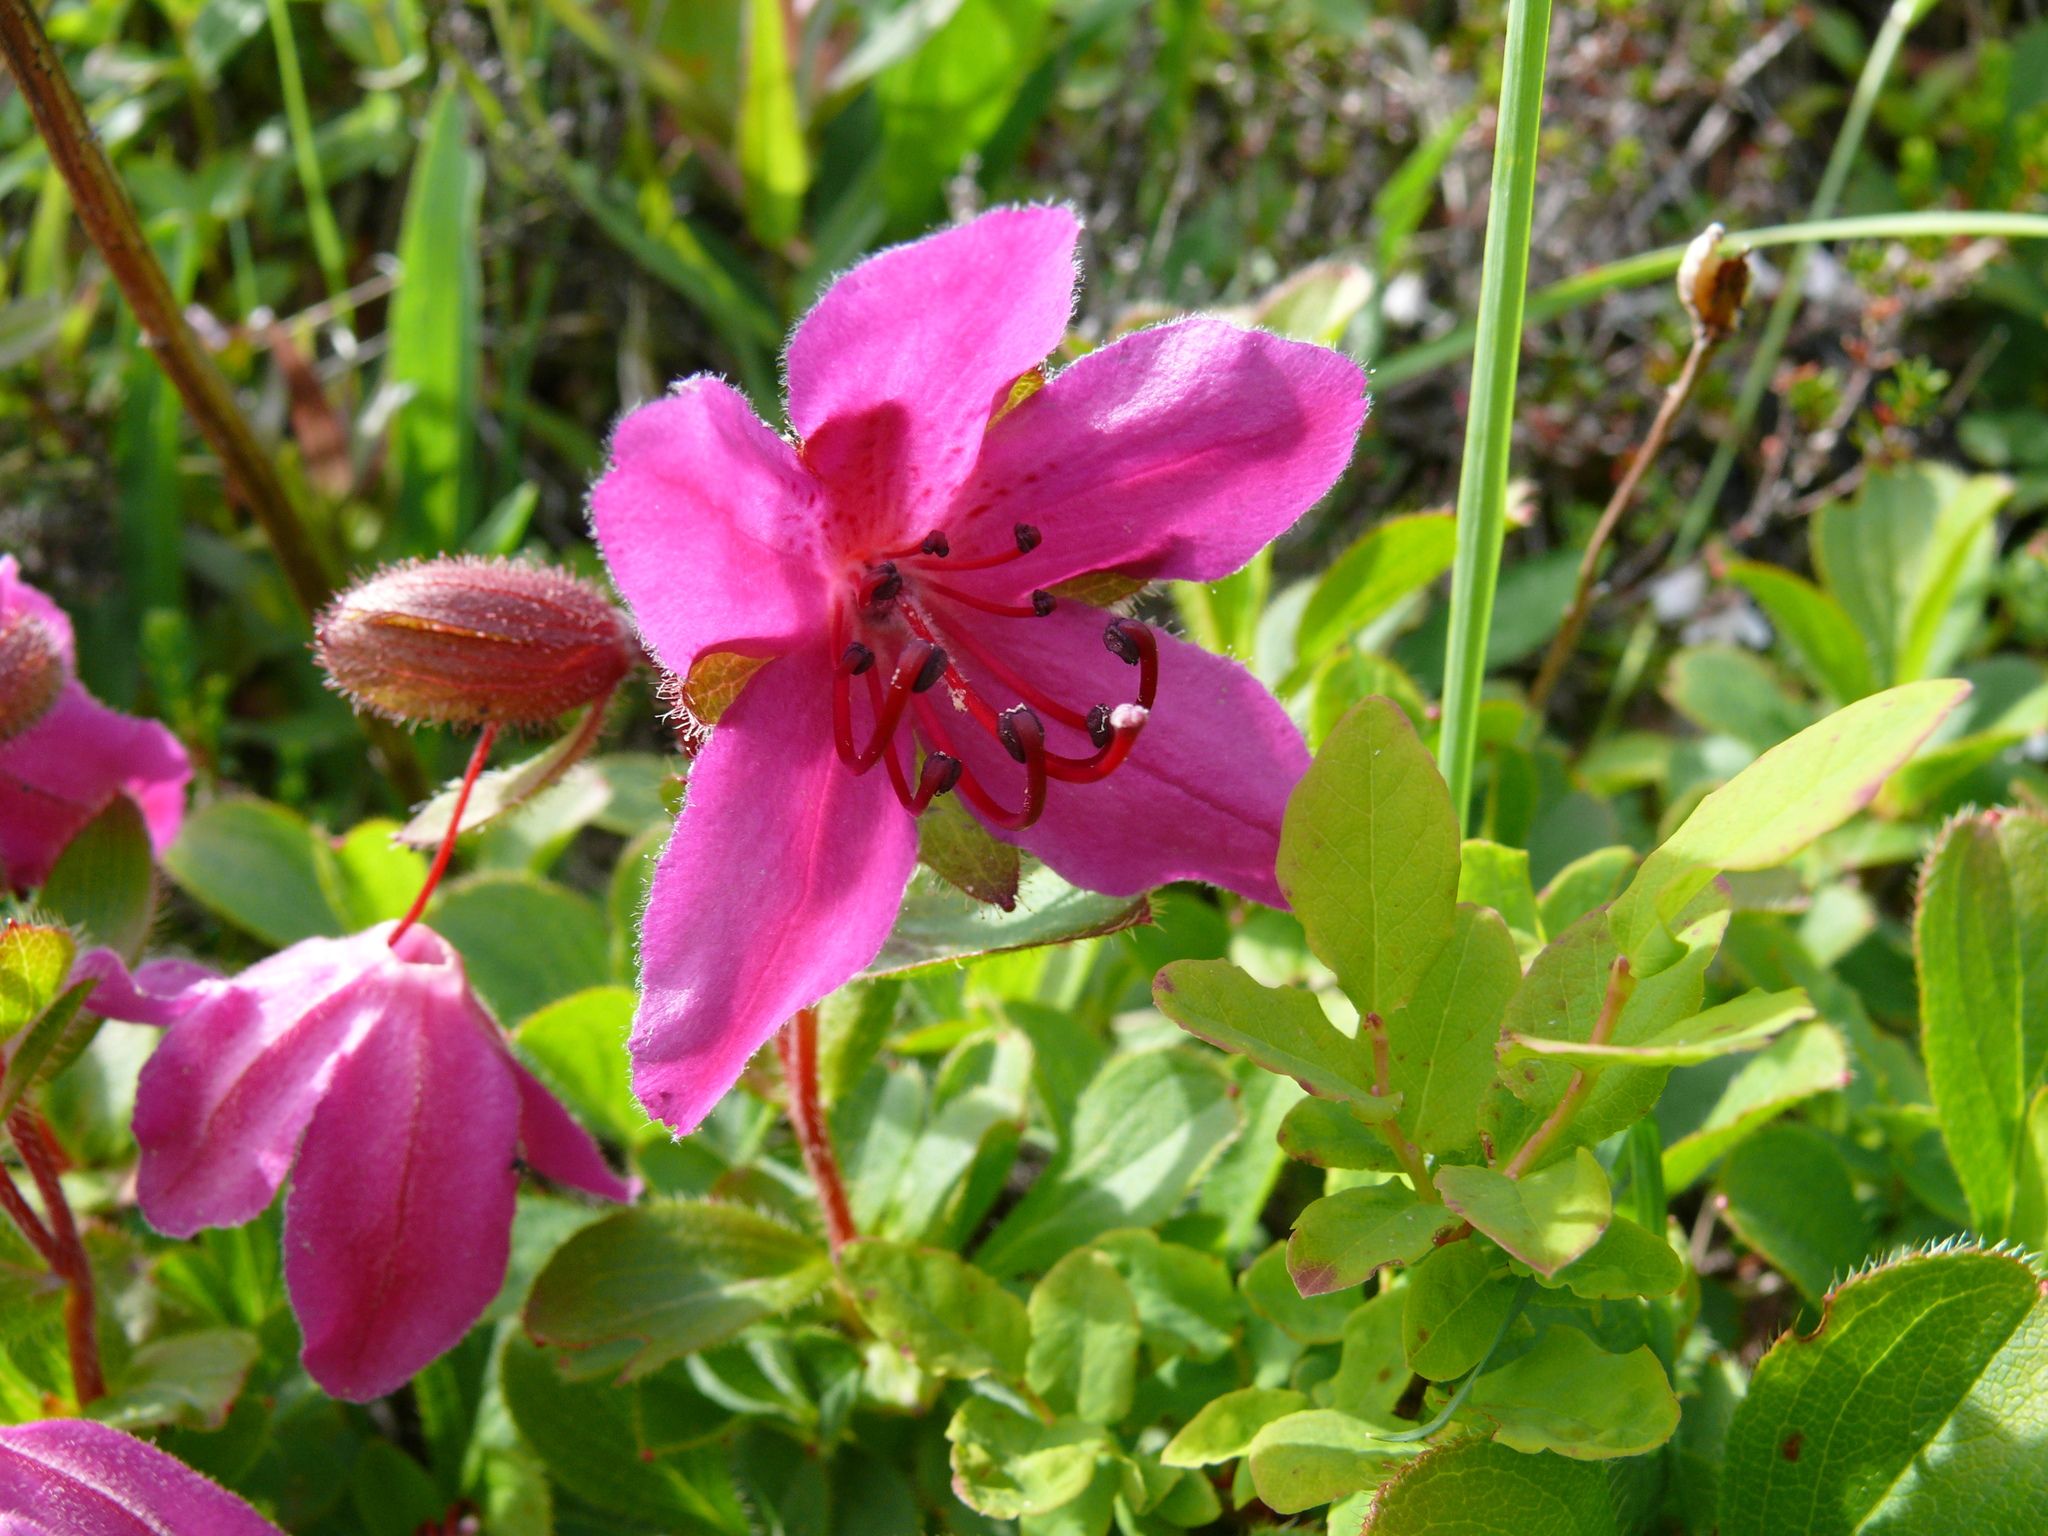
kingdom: Plantae
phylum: Tracheophyta
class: Magnoliopsida
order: Ericales
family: Ericaceae
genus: Rhododendron
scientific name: Rhododendron camtschaticum
